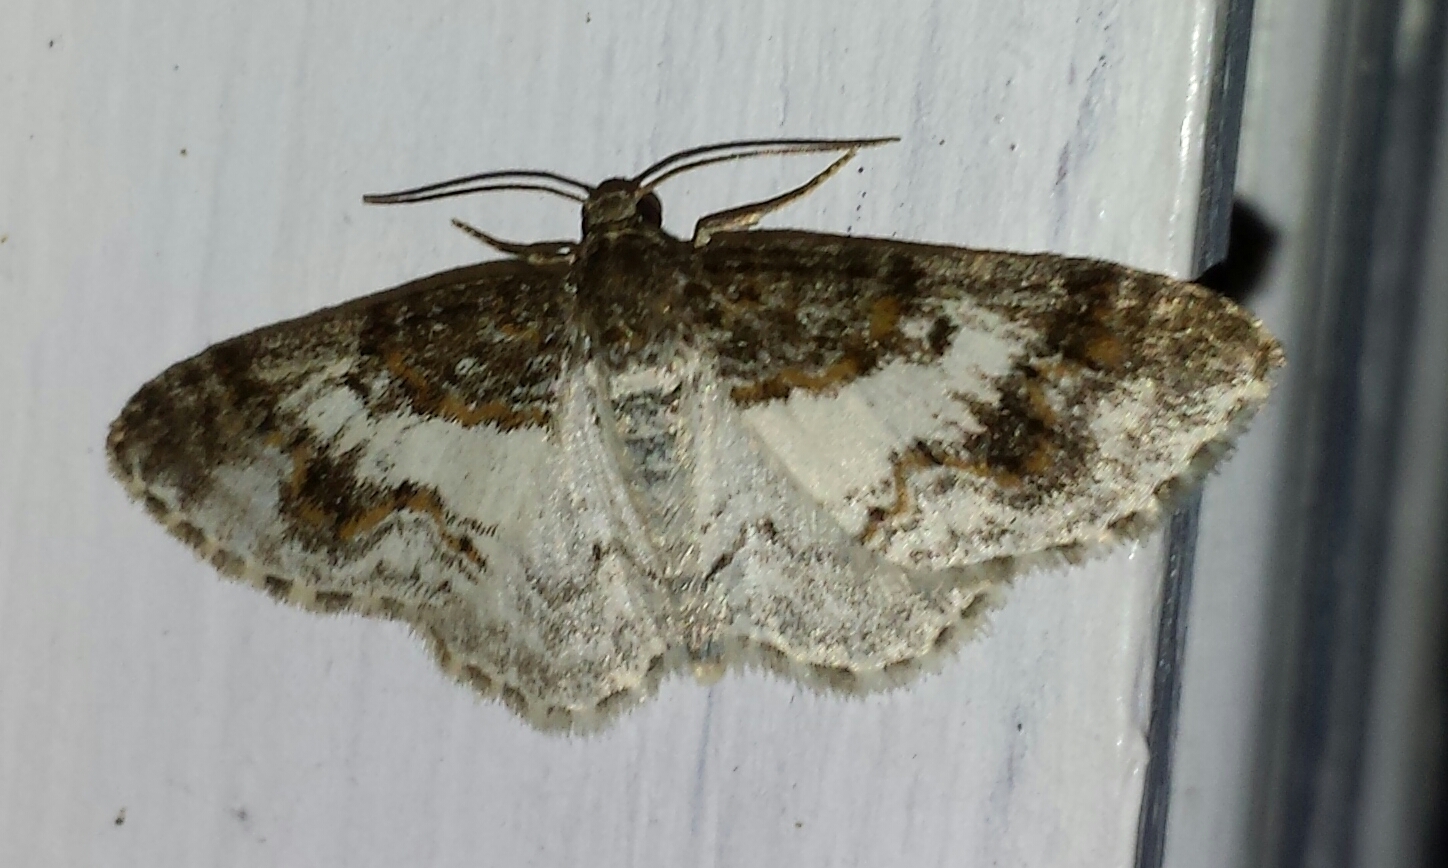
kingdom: Animalia
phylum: Arthropoda
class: Insecta
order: Lepidoptera
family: Geometridae
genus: Hydrelia
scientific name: Hydrelia condensata
